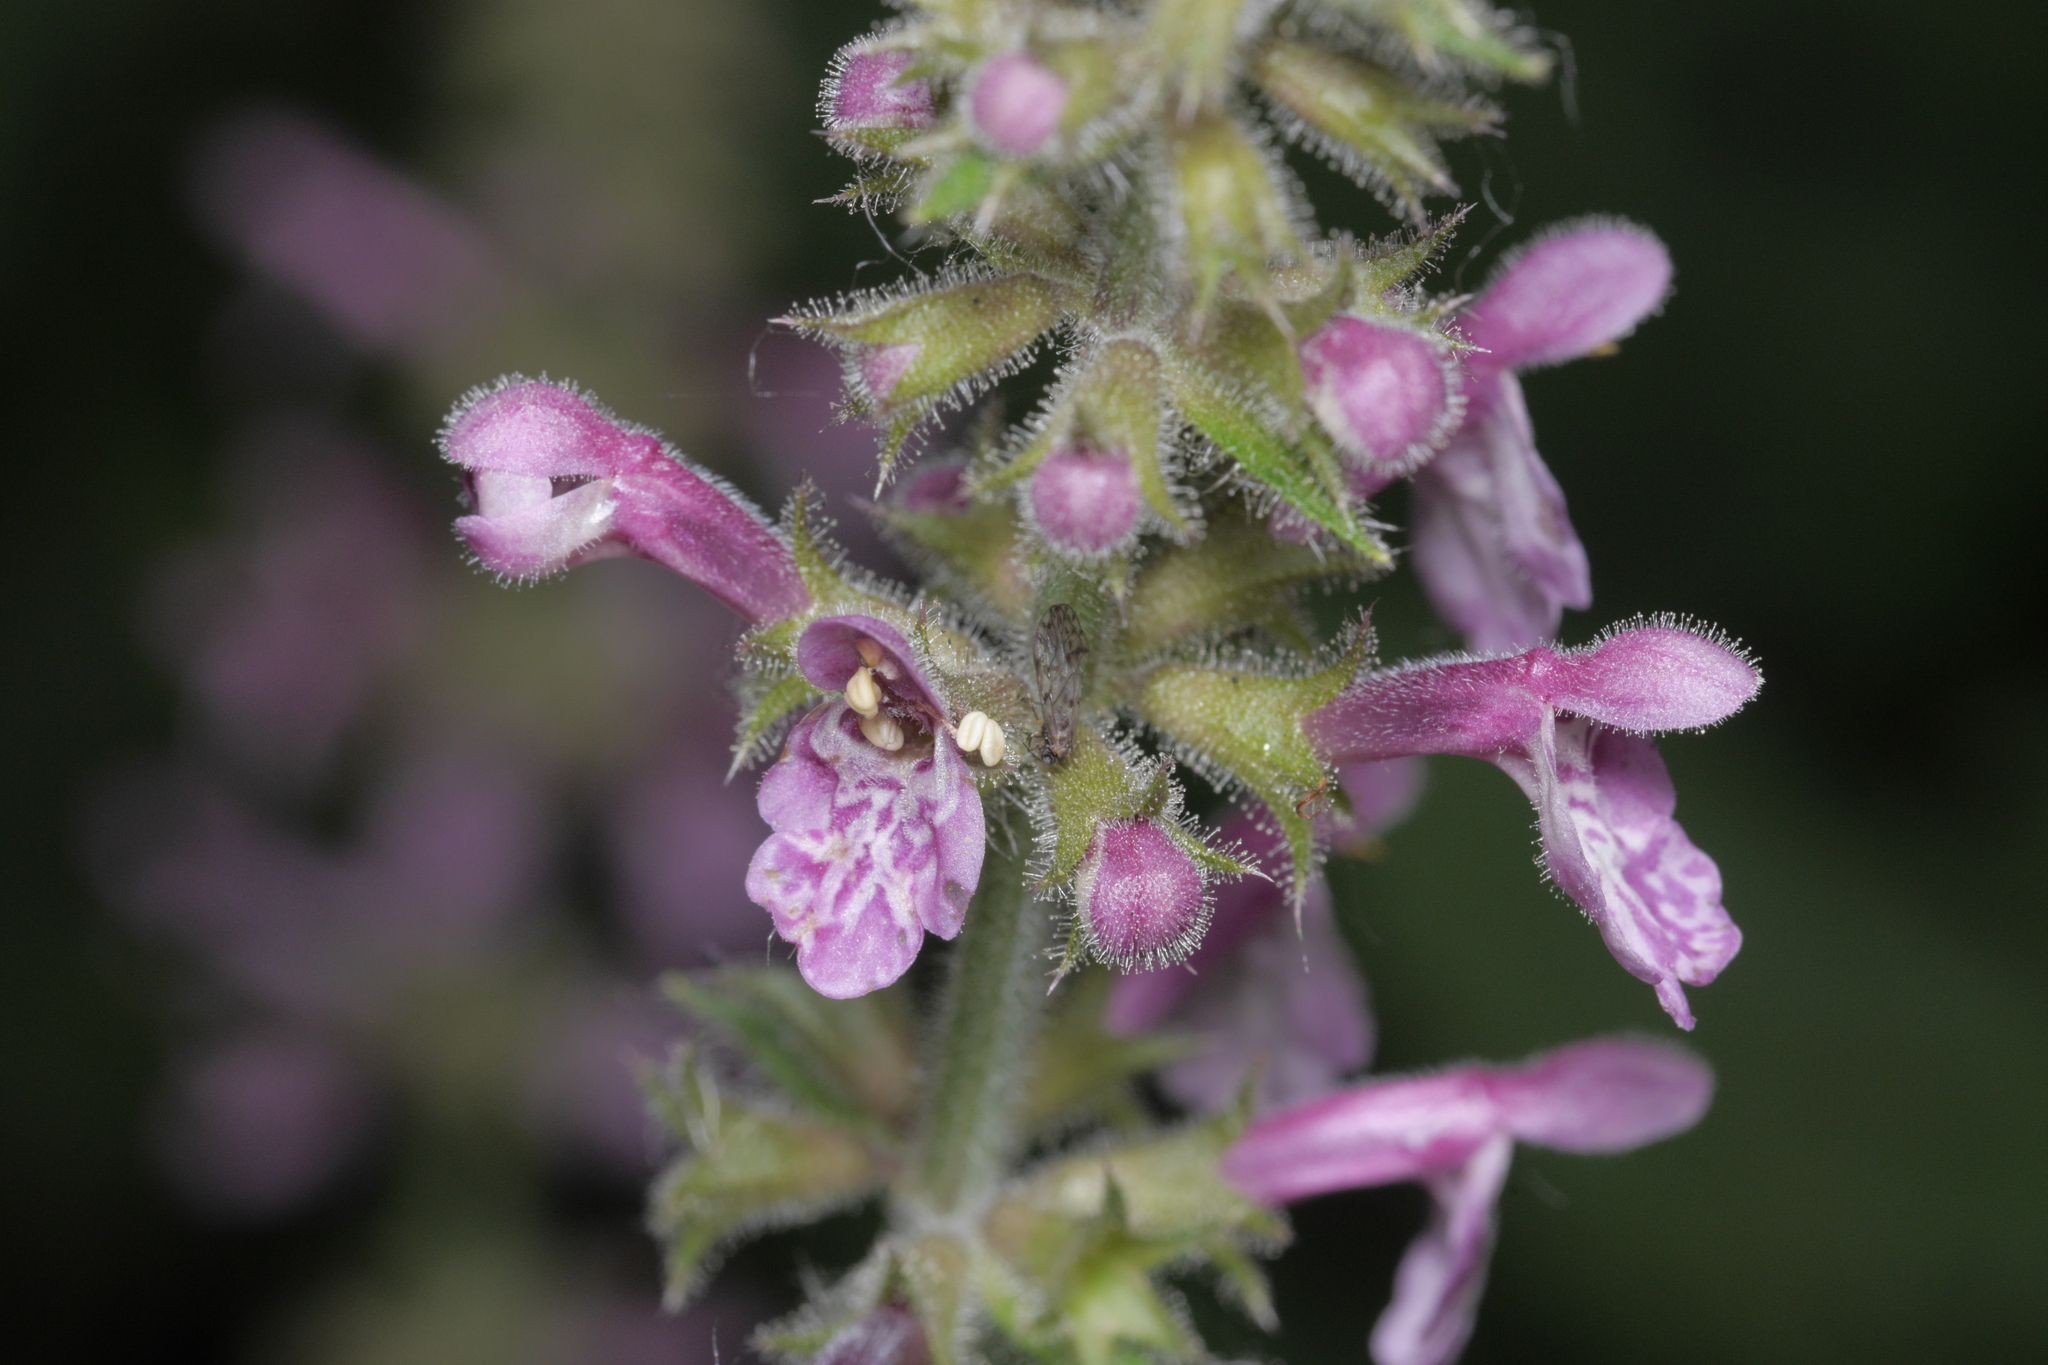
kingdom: Plantae
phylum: Tracheophyta
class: Magnoliopsida
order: Lamiales
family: Lamiaceae
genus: Stachys
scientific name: Stachys sylvatica
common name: Hedge woundwort
